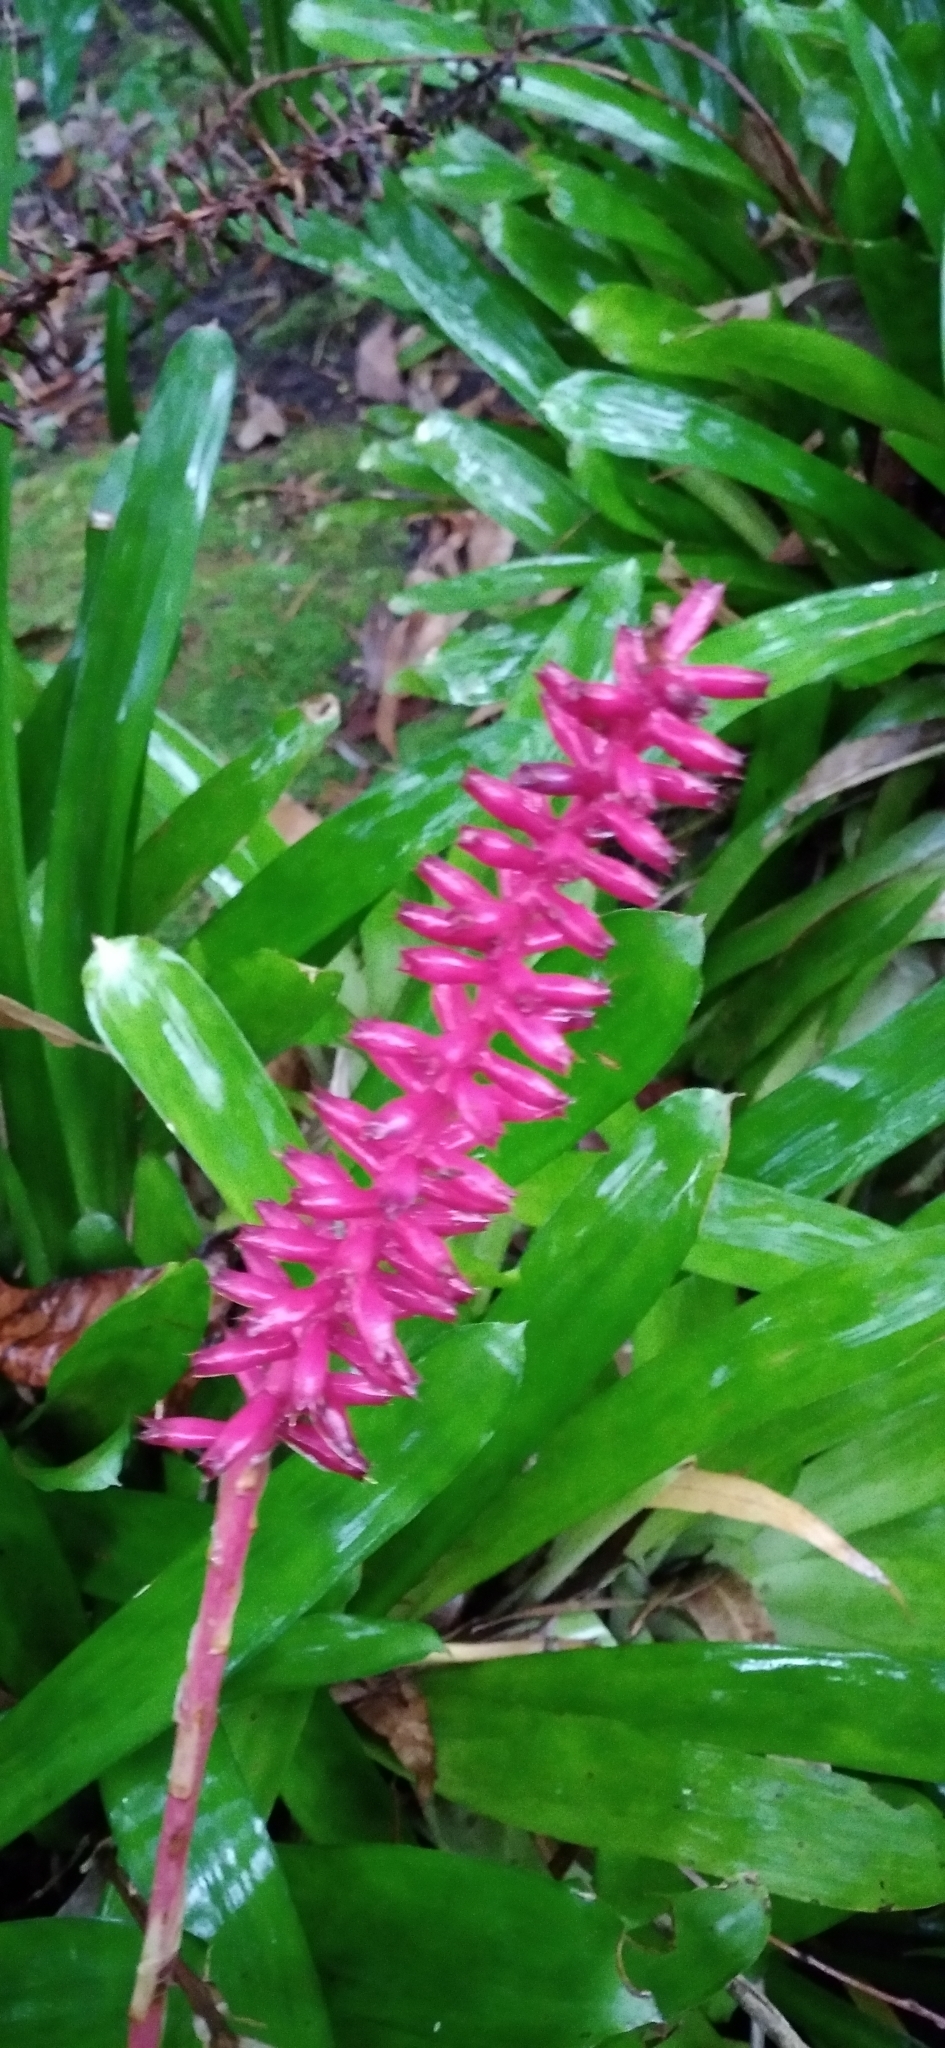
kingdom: Plantae
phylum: Tracheophyta
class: Liliopsida
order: Poales
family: Bromeliaceae
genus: Aechmea
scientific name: Aechmea gamosepala
